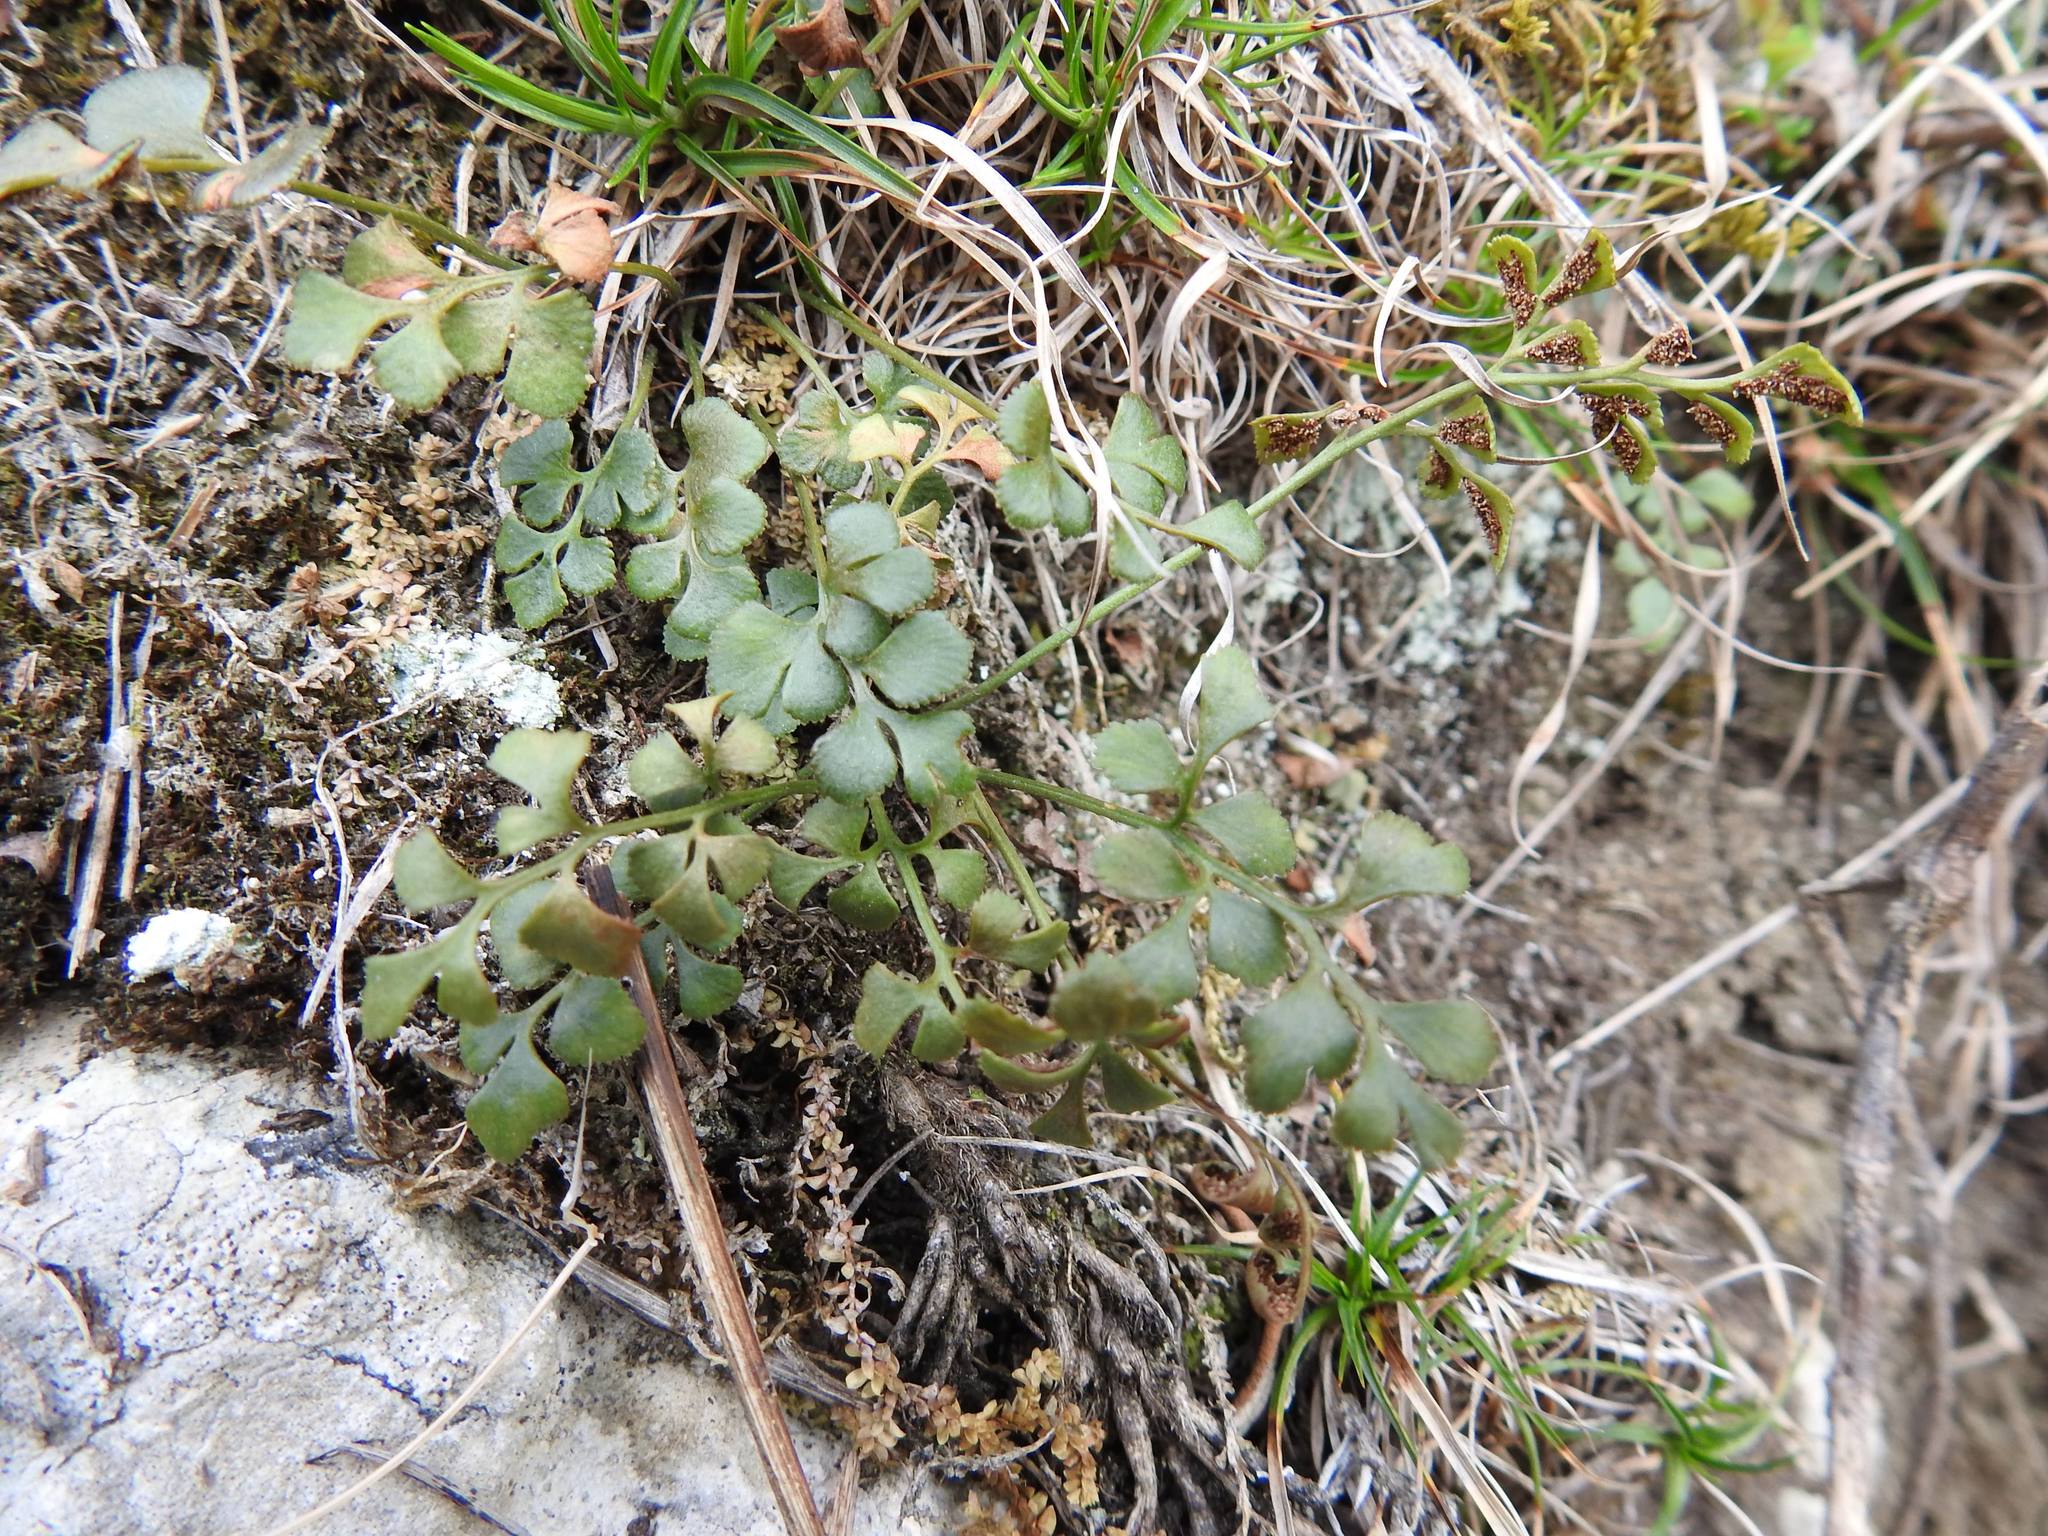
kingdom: Plantae
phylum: Tracheophyta
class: Polypodiopsida
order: Polypodiales
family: Aspleniaceae
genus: Asplenium
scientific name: Asplenium ruta-muraria
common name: Wall-rue
